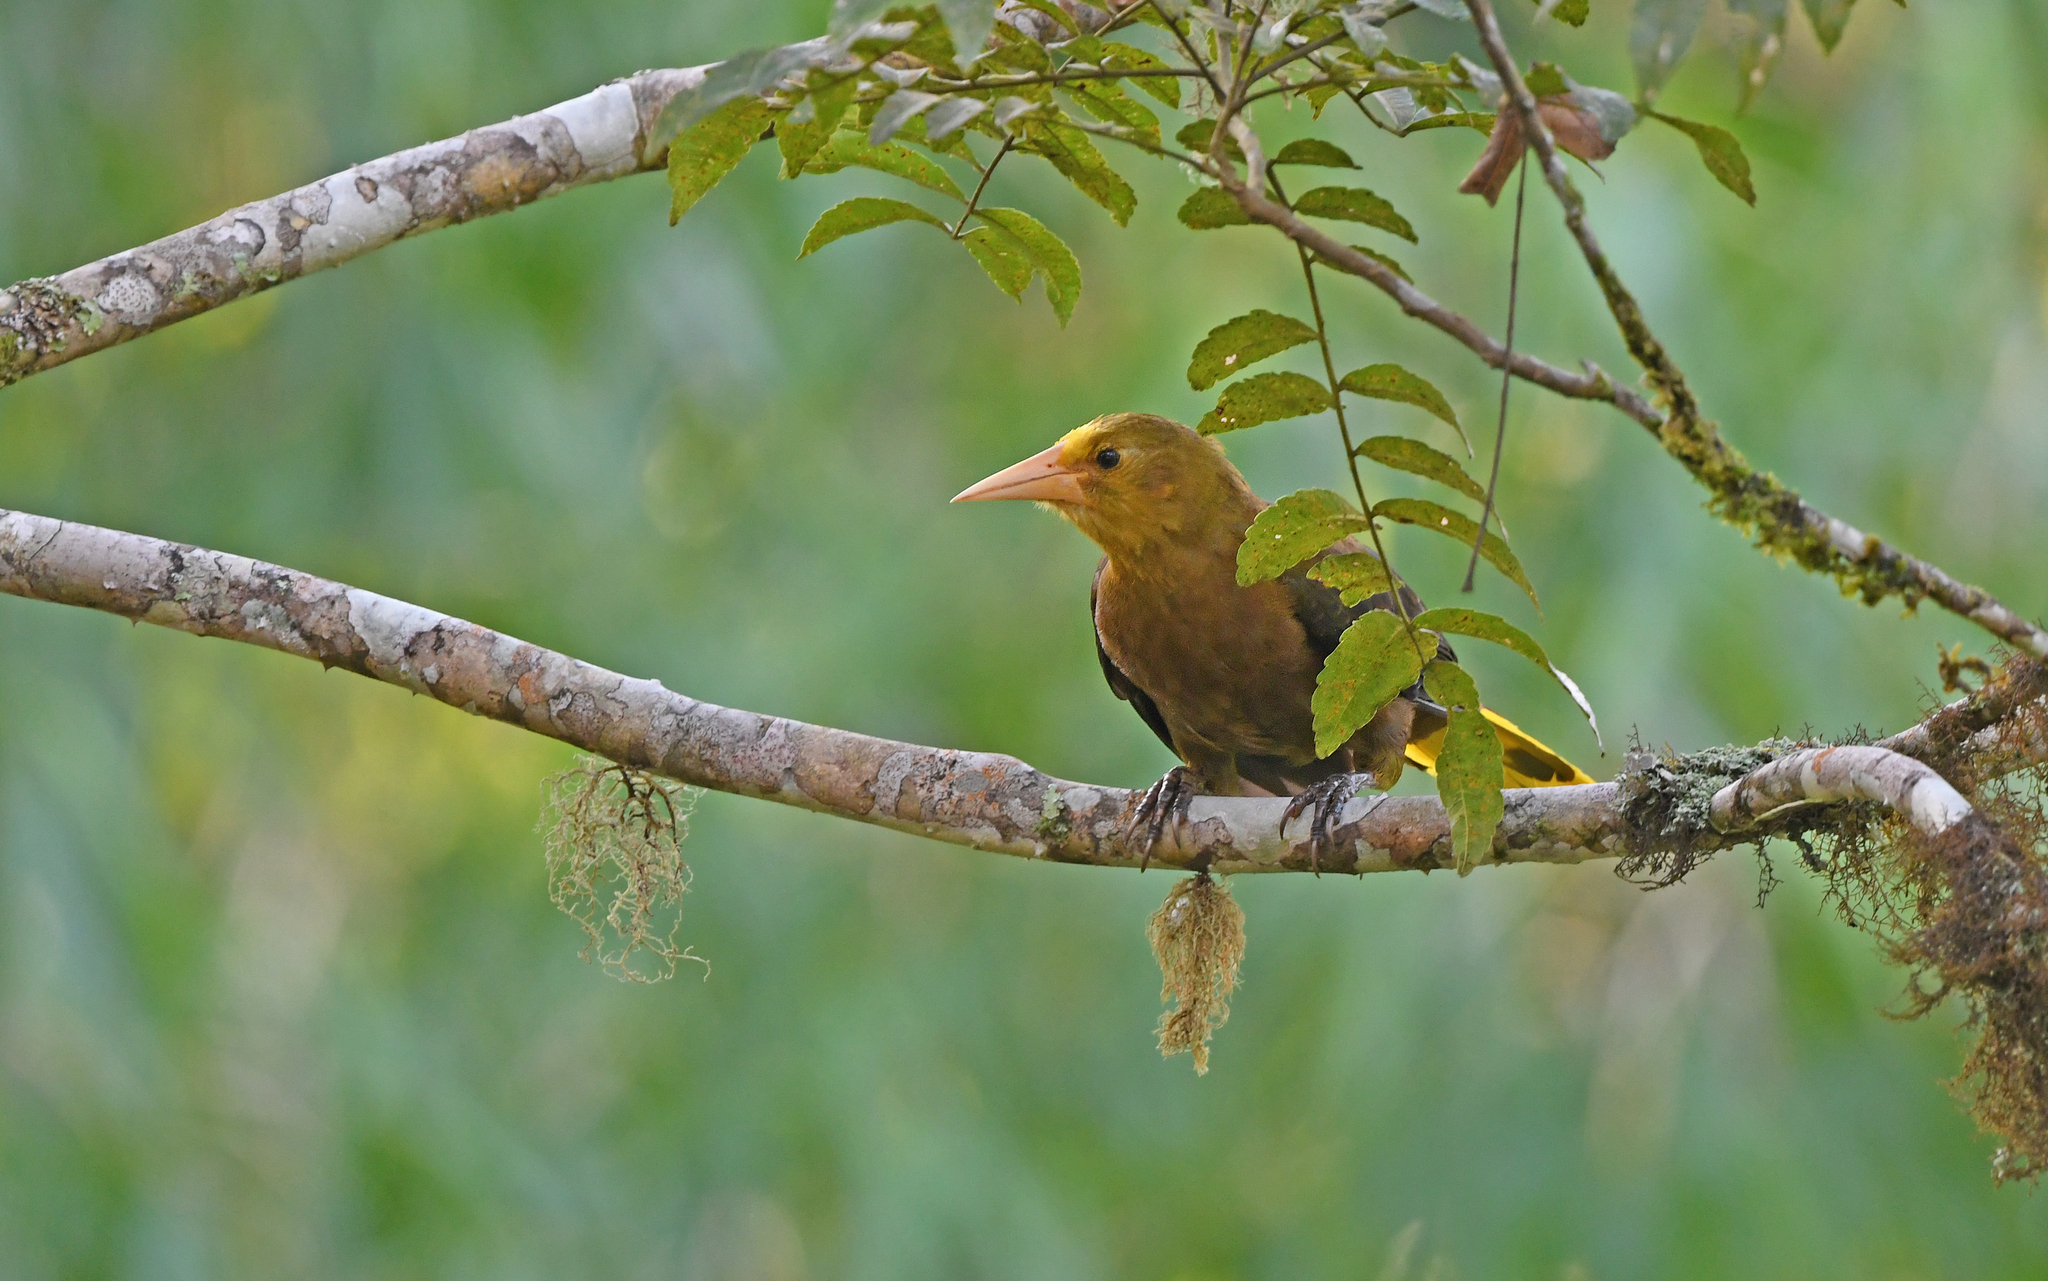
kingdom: Animalia
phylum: Chordata
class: Aves
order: Passeriformes
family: Icteridae
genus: Psarocolius
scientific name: Psarocolius angustifrons
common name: Russet-backed oropendola
